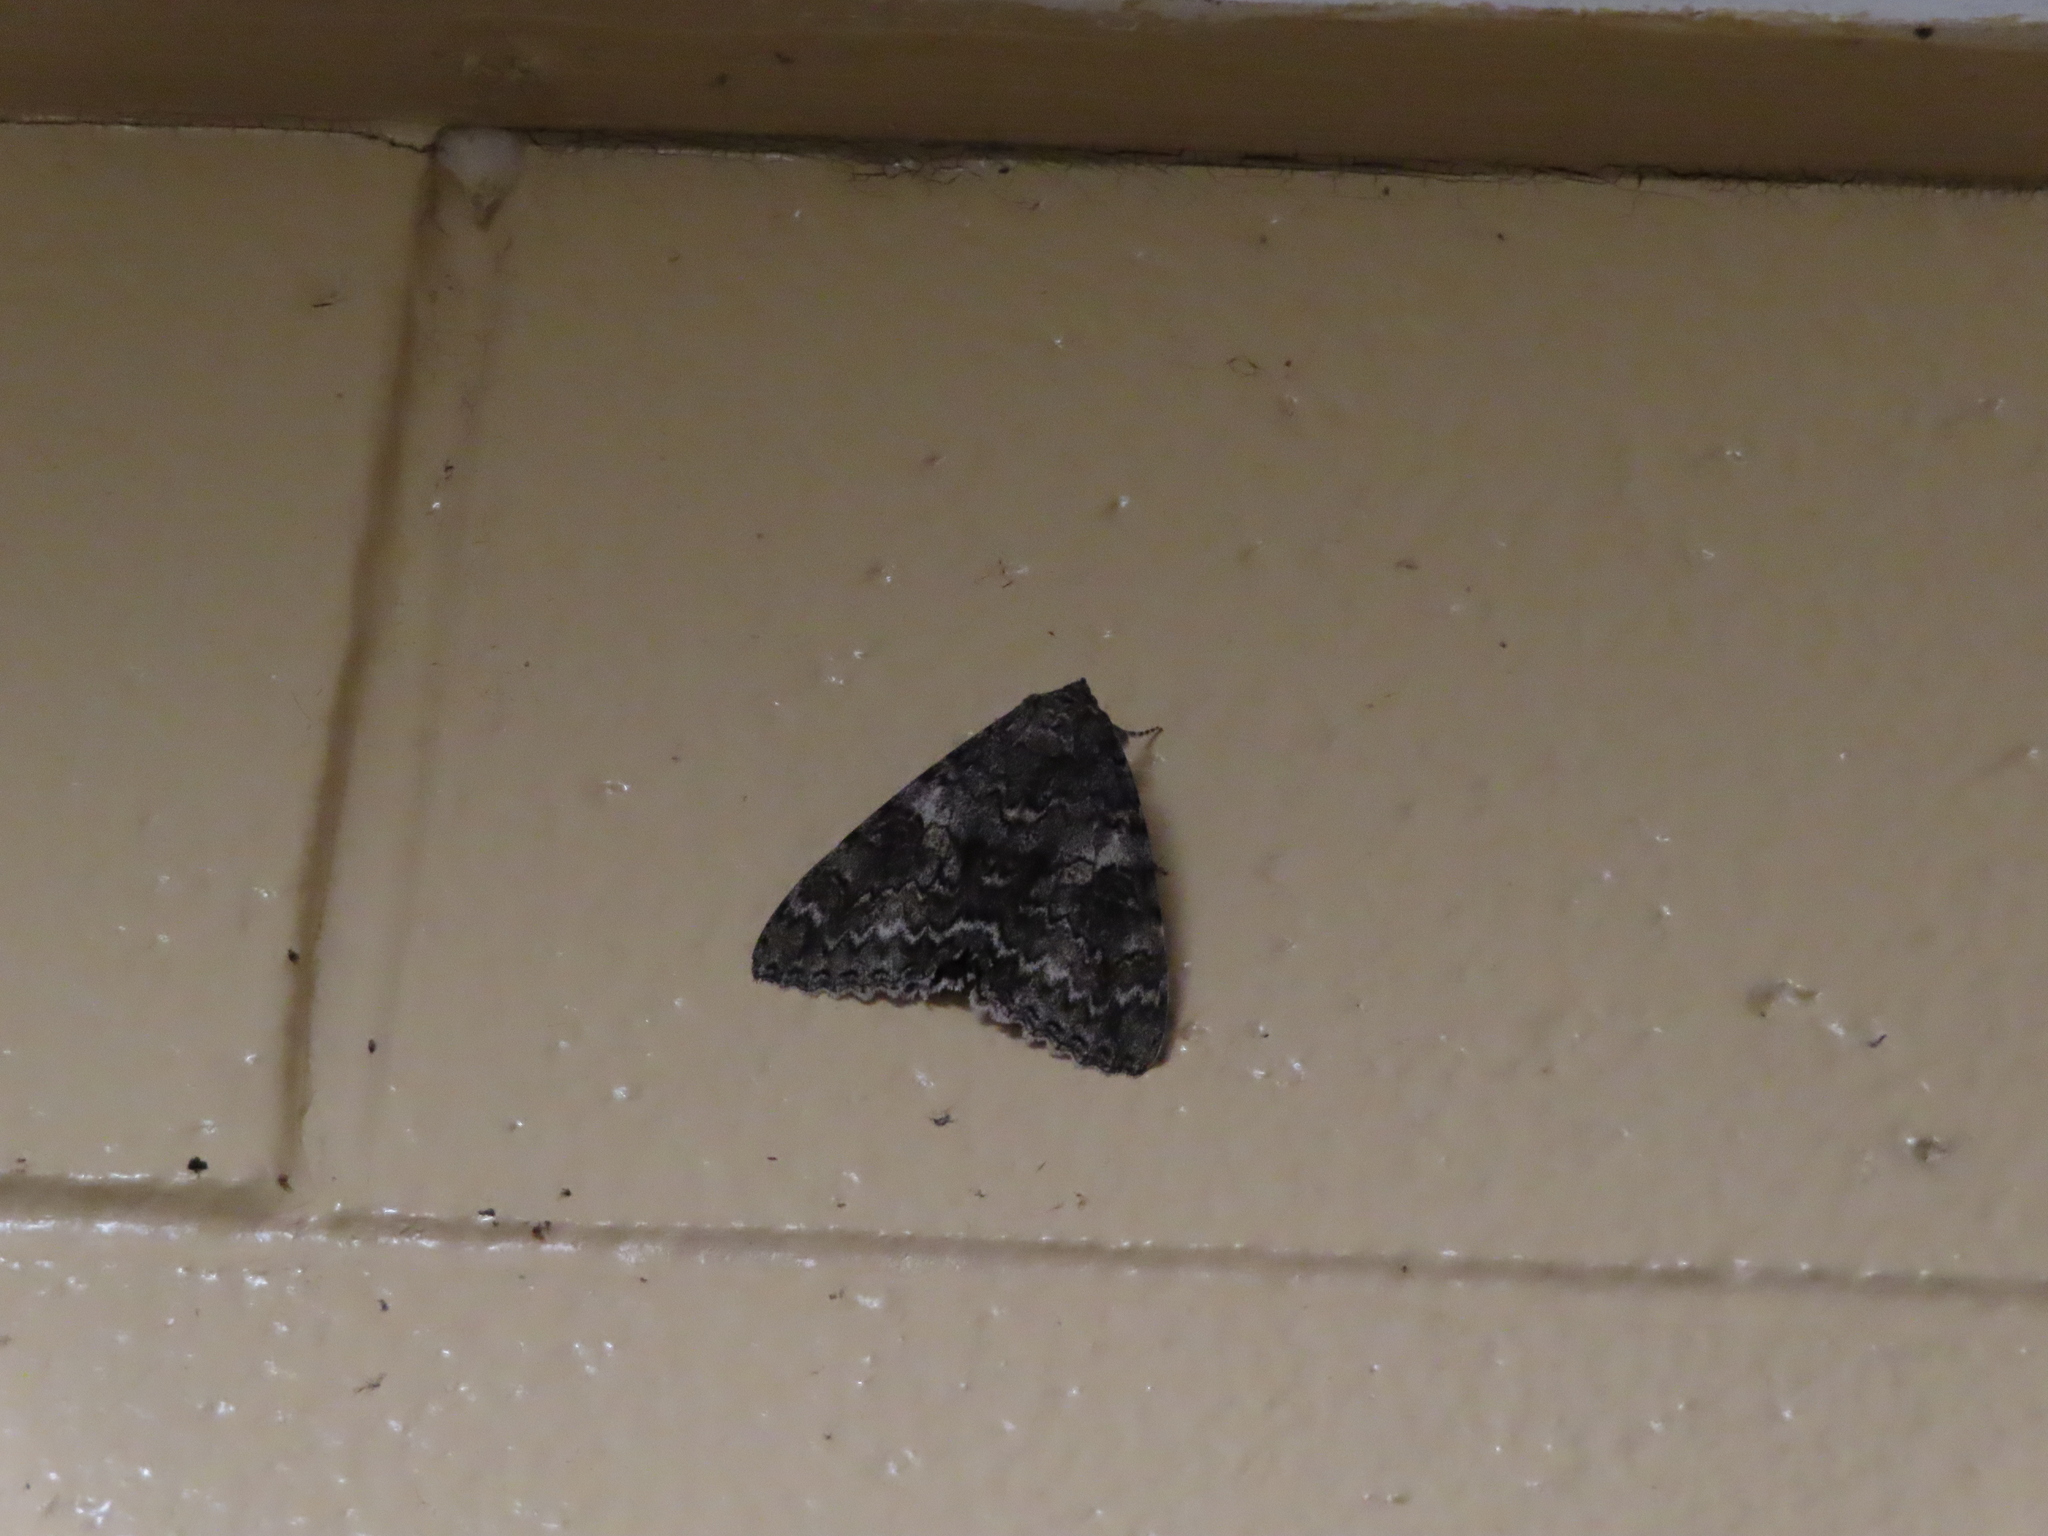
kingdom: Animalia
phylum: Arthropoda
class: Insecta
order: Lepidoptera
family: Erebidae
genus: Catocala
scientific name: Catocala unijuga
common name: Once-married underwing
